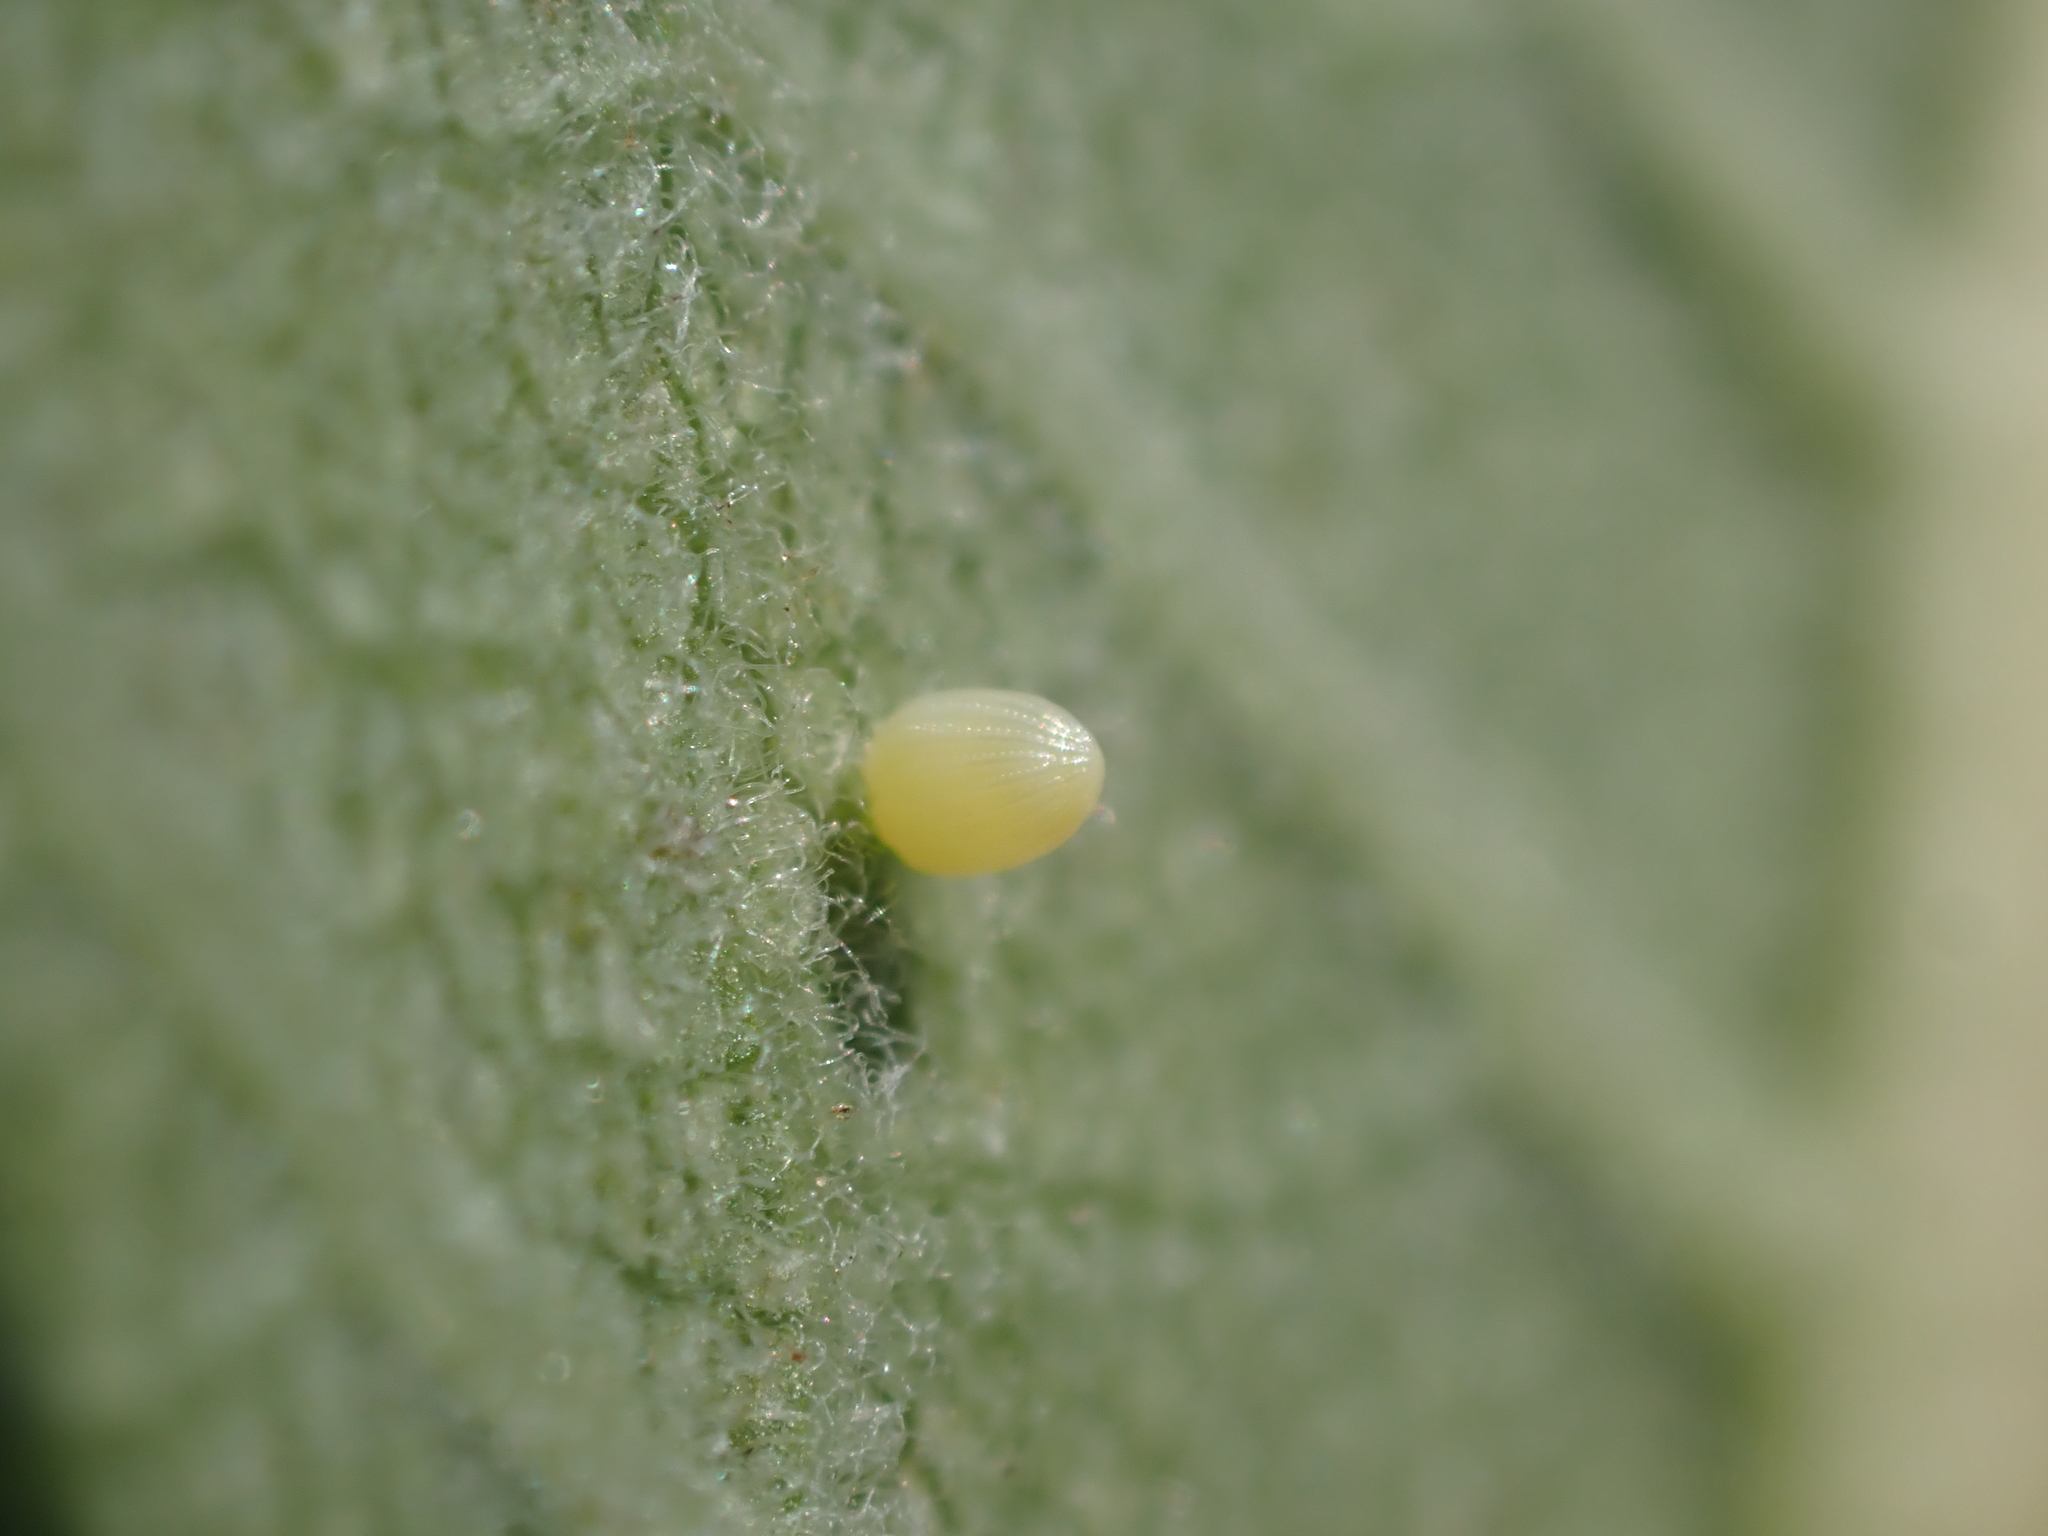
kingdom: Animalia
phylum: Arthropoda
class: Insecta
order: Lepidoptera
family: Nymphalidae
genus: Danaus
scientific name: Danaus plexippus
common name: Monarch
